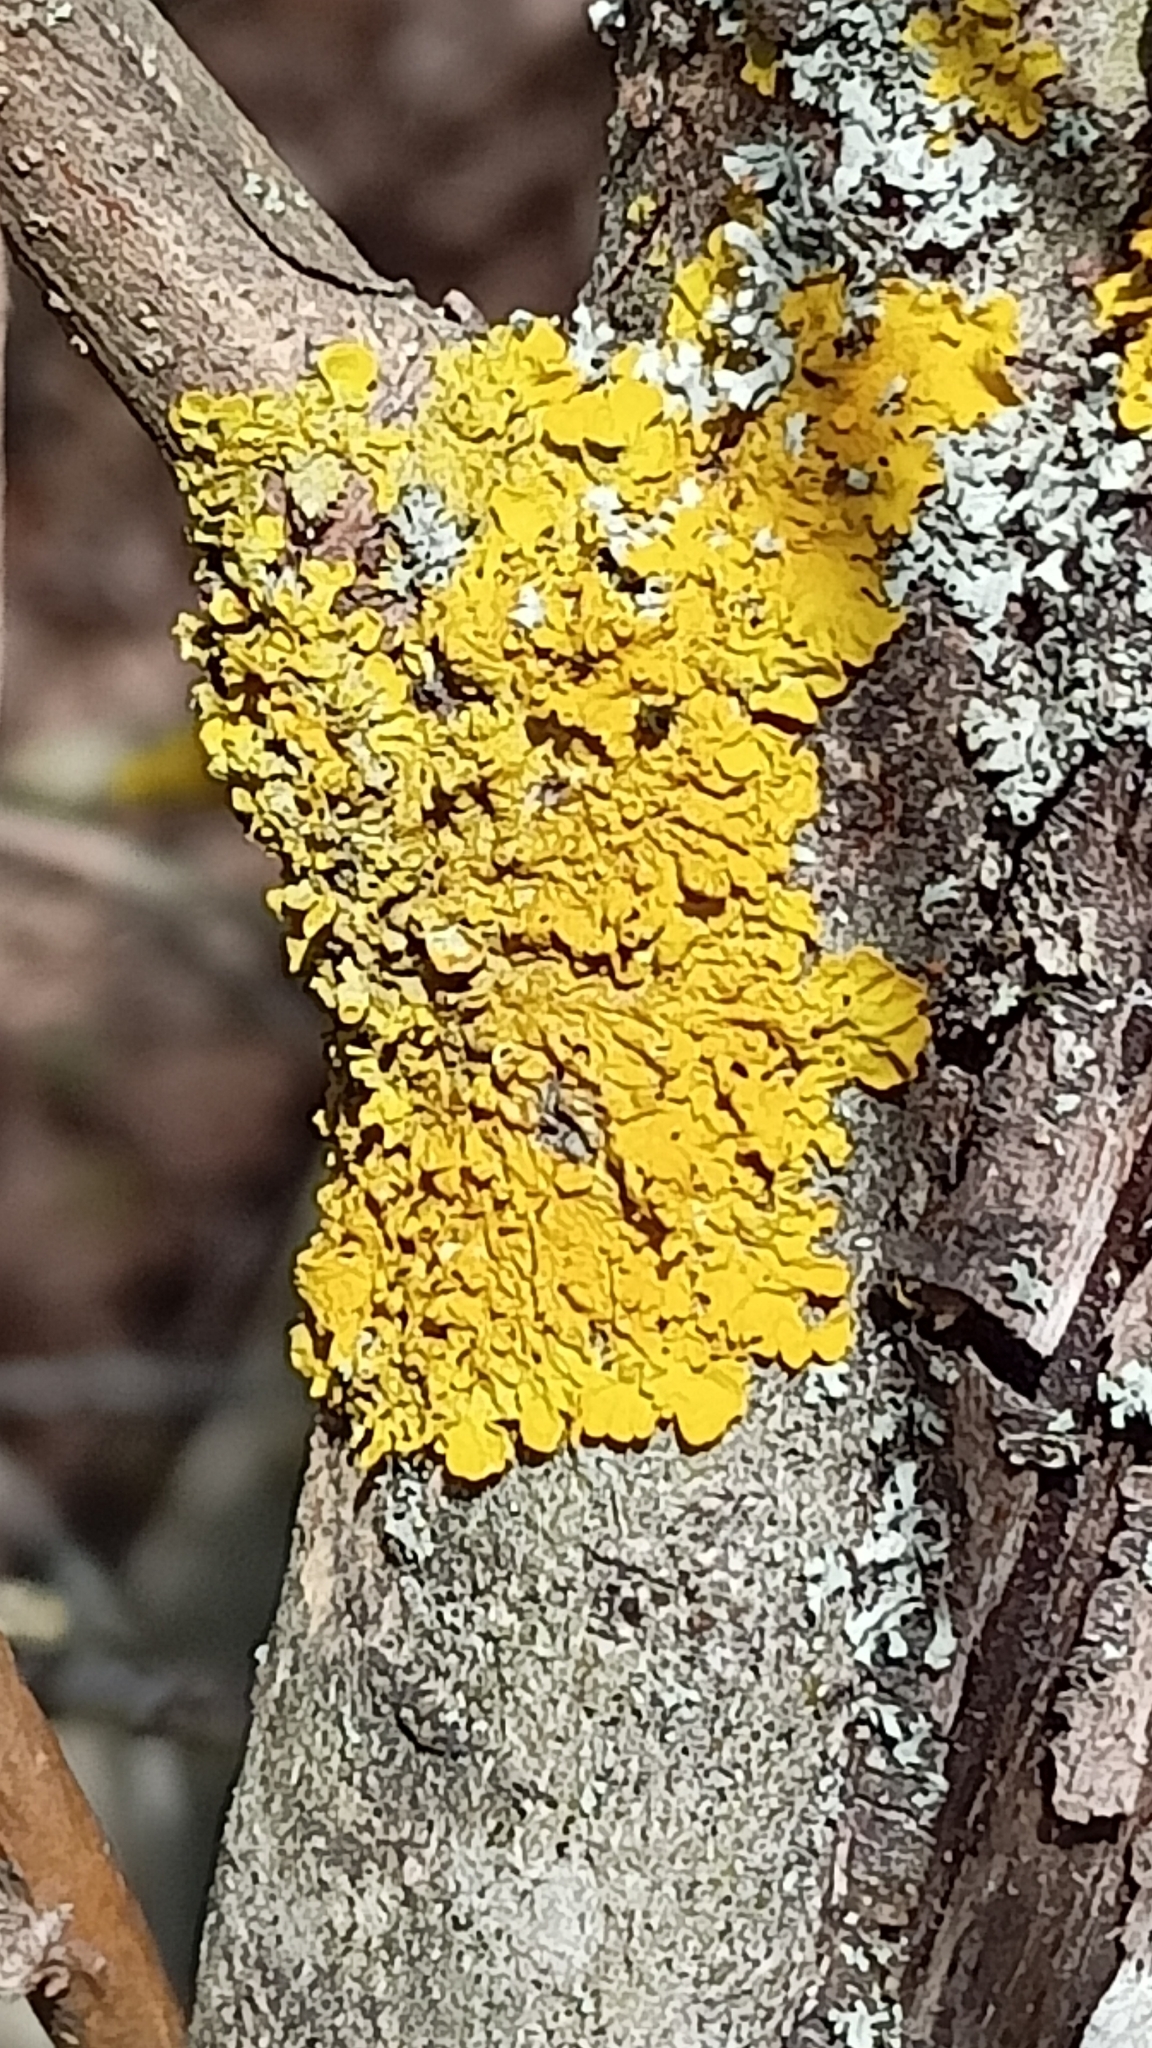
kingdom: Fungi
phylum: Ascomycota
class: Lecanoromycetes
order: Teloschistales
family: Teloschistaceae
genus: Xanthoria
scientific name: Xanthoria parietina
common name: Common orange lichen
